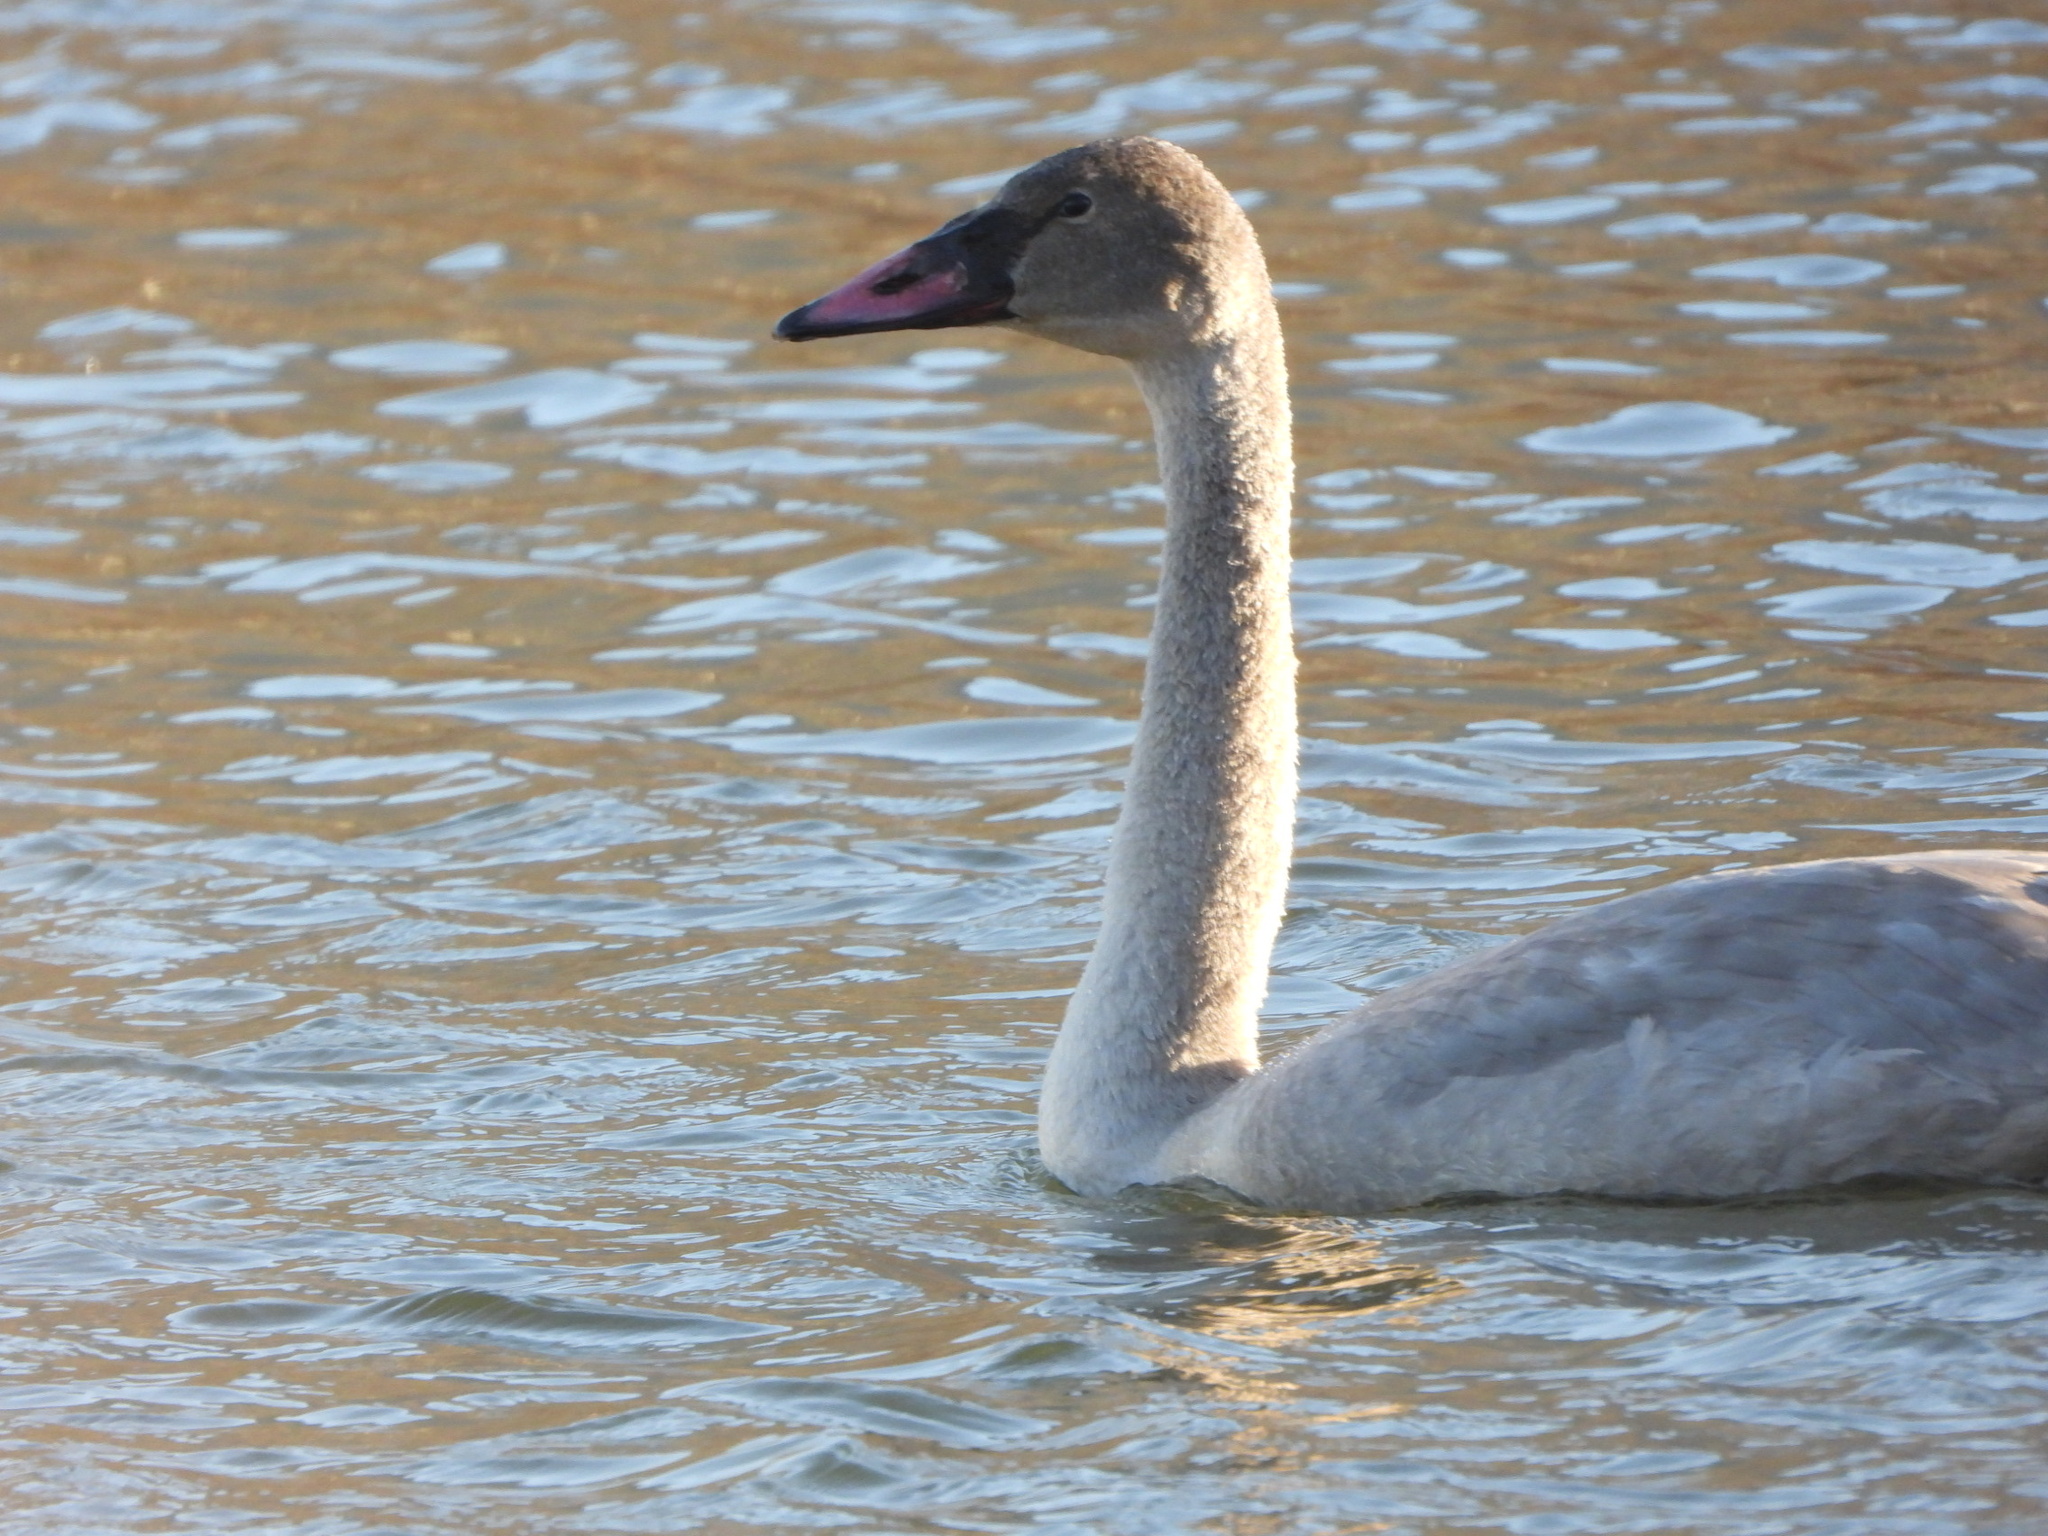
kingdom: Animalia
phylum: Chordata
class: Aves
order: Anseriformes
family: Anatidae
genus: Cygnus
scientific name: Cygnus buccinator
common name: Trumpeter swan
